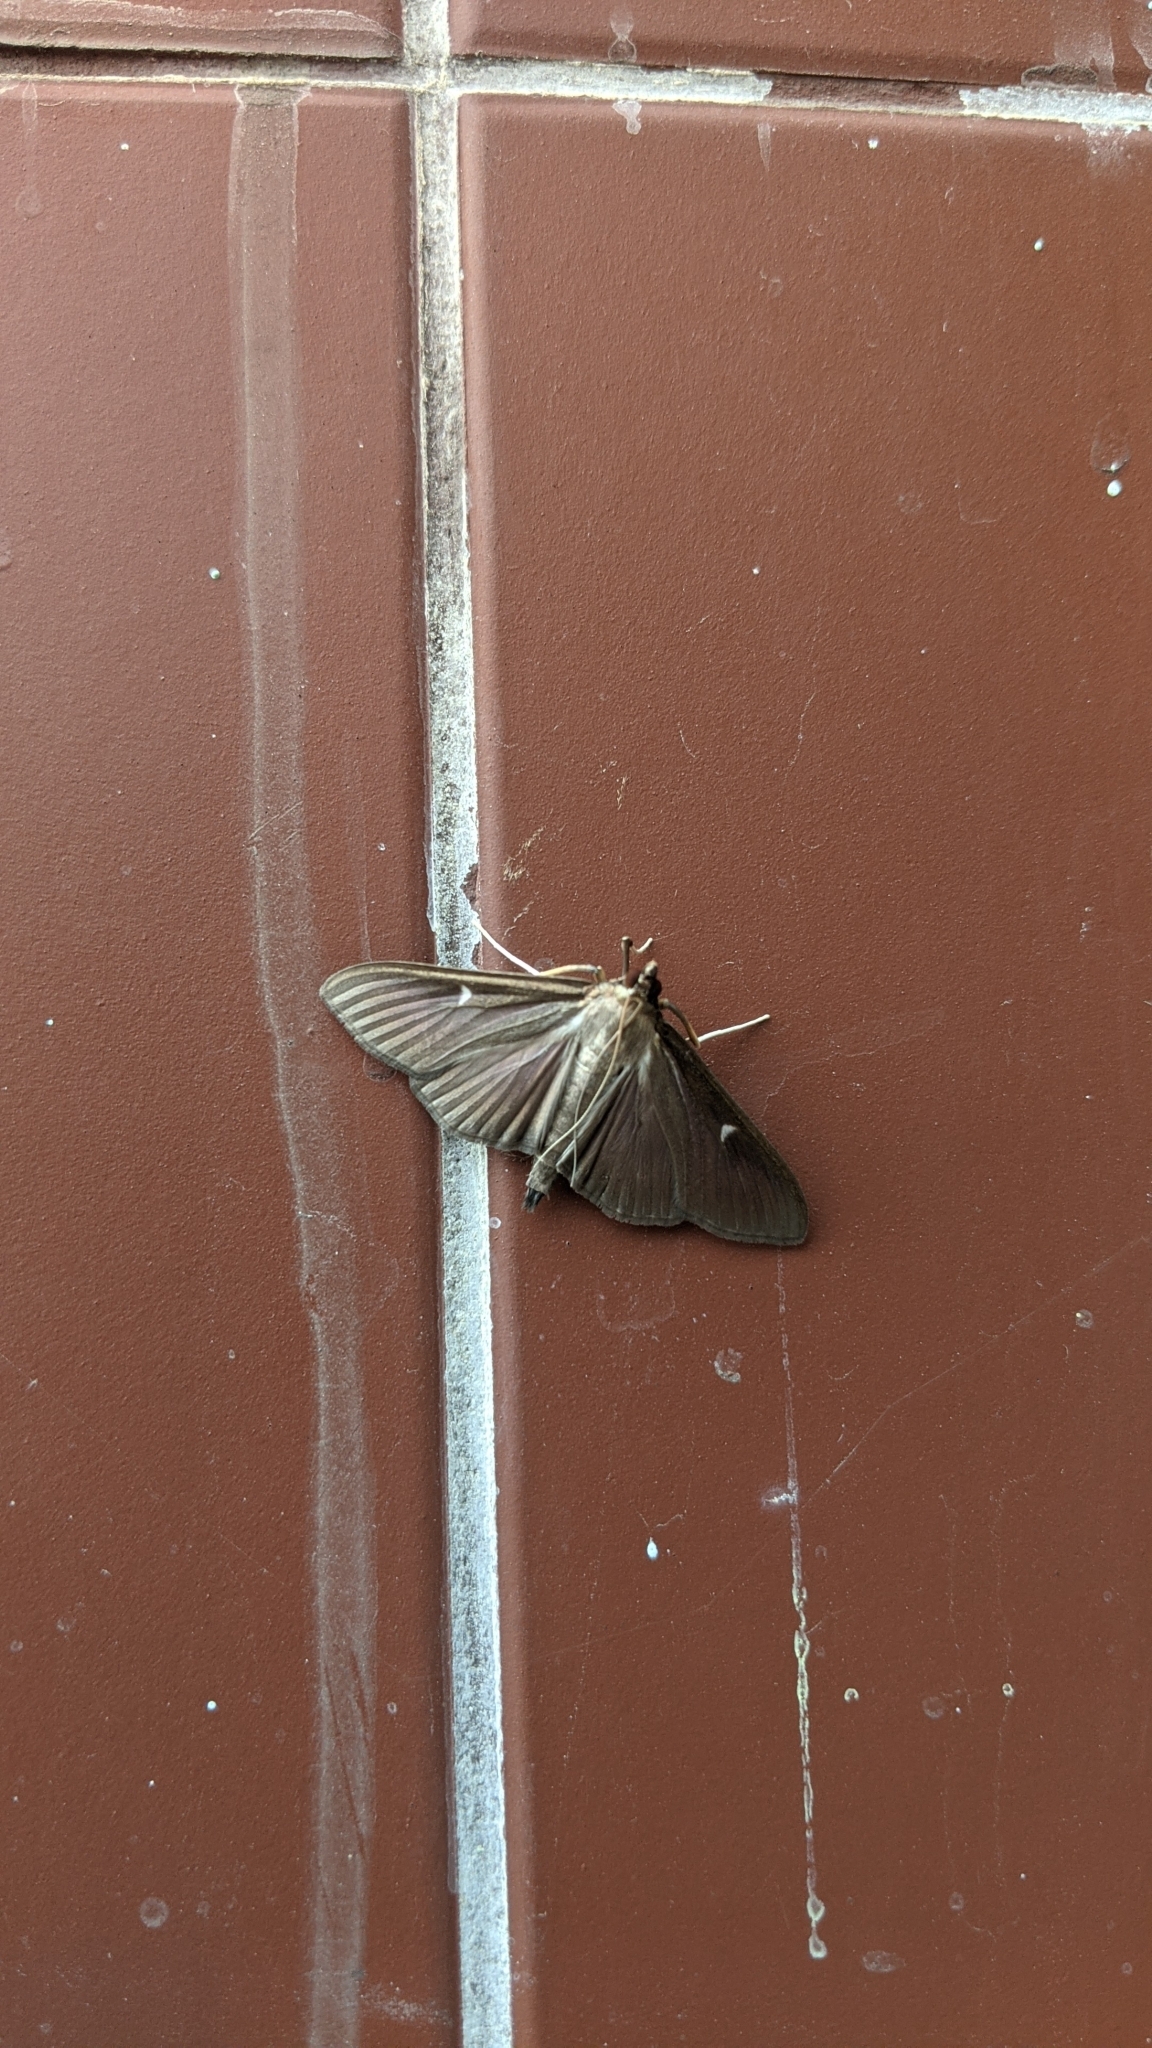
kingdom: Animalia
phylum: Arthropoda
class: Insecta
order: Lepidoptera
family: Crambidae
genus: Cydalima
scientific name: Cydalima perspectalis
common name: Box tree moth
